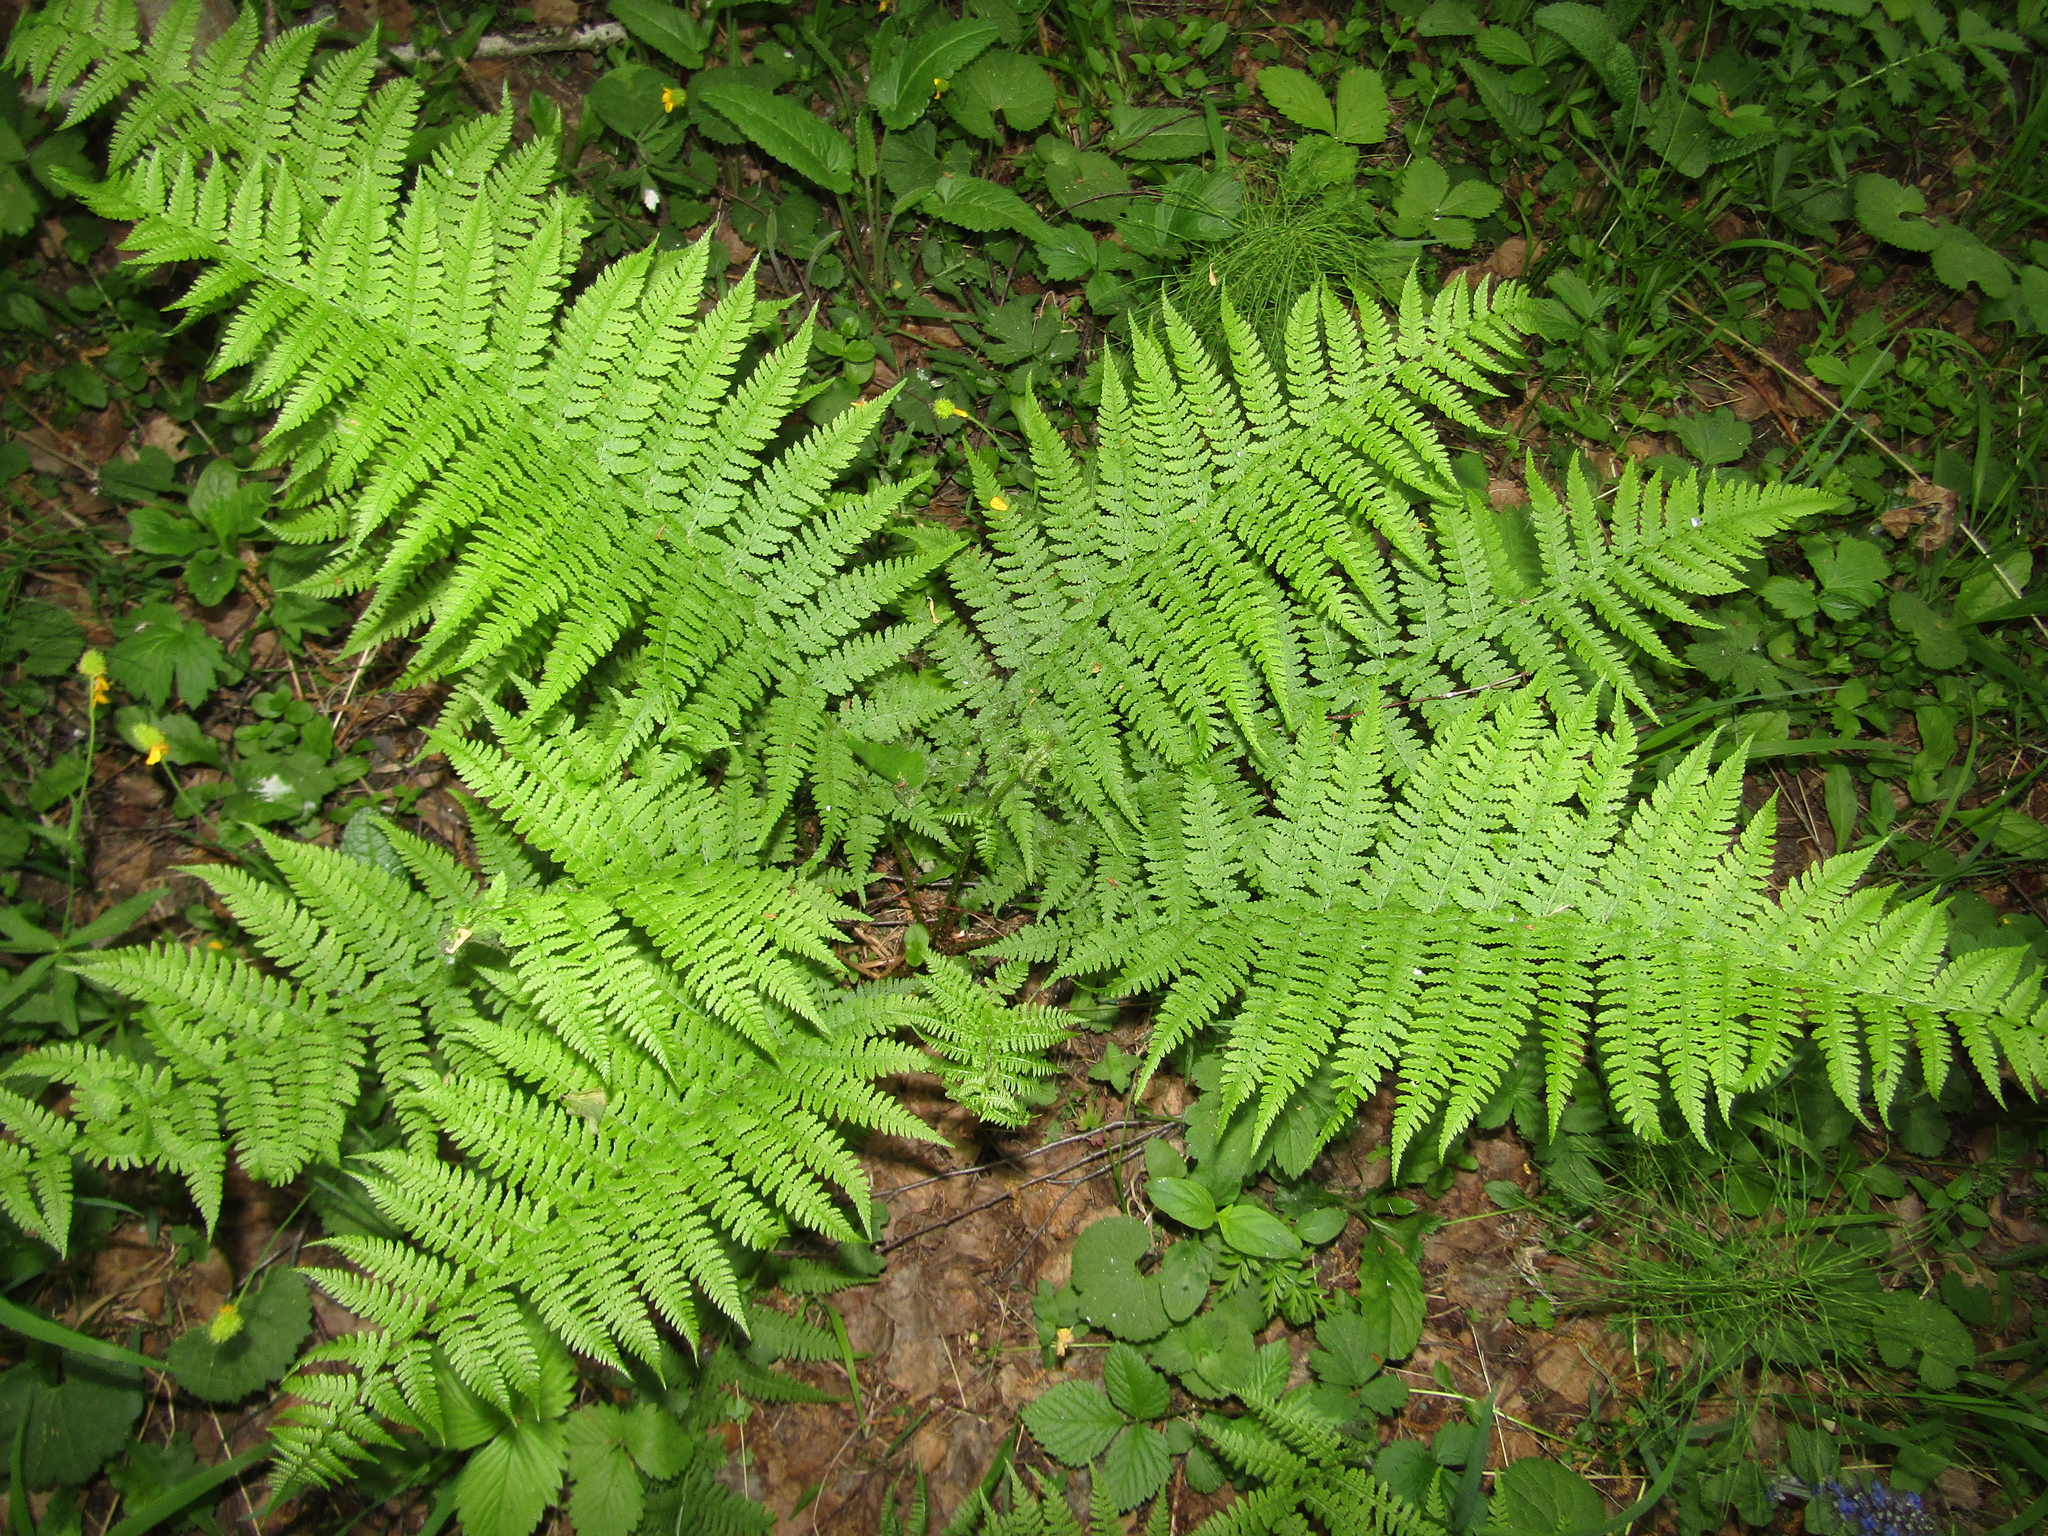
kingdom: Plantae
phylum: Tracheophyta
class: Polypodiopsida
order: Polypodiales
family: Athyriaceae
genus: Athyrium
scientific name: Athyrium filix-femina
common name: Lady fern
